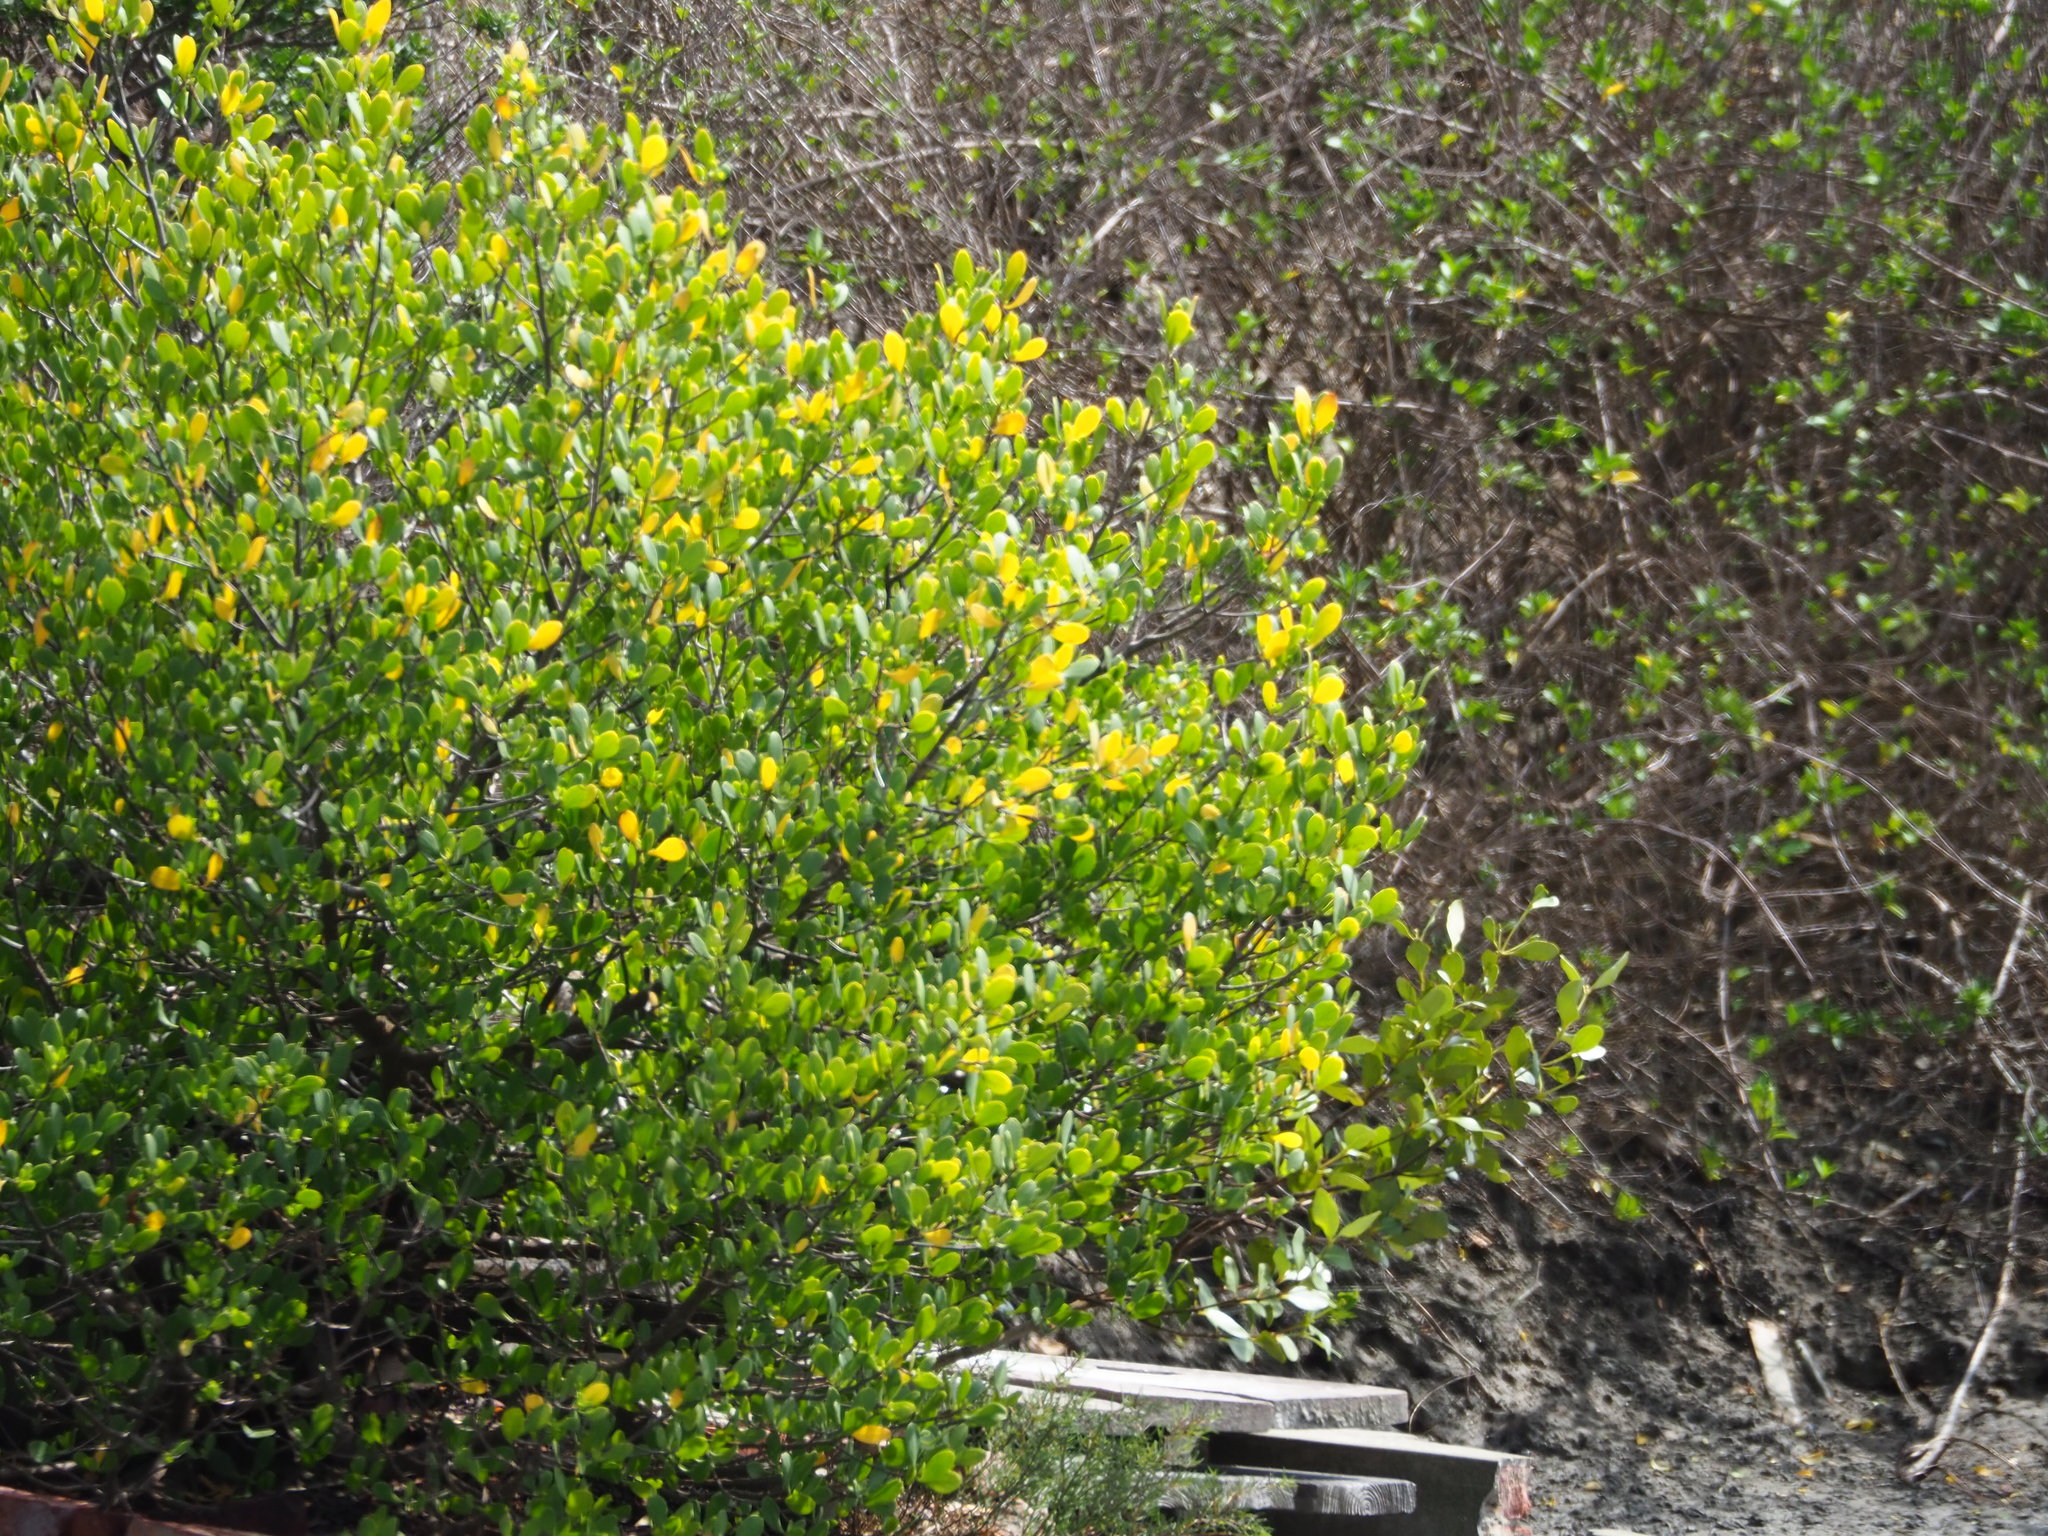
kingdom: Plantae
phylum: Tracheophyta
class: Magnoliopsida
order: Myrtales
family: Combretaceae
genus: Lumnitzera
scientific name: Lumnitzera racemosa
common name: White-flowered black mangrove
